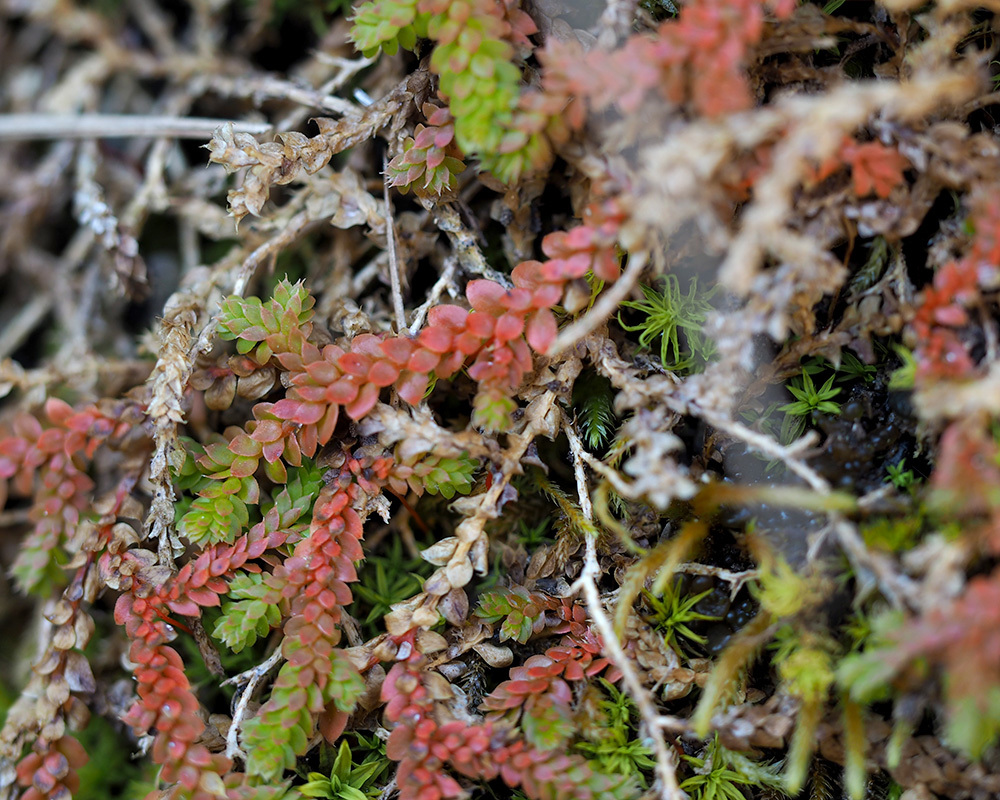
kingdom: Plantae
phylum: Tracheophyta
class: Lycopodiopsida
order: Selaginellales
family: Selaginellaceae
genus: Selaginella
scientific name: Selaginella denticulata
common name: Toothed-leaved clubmoss
